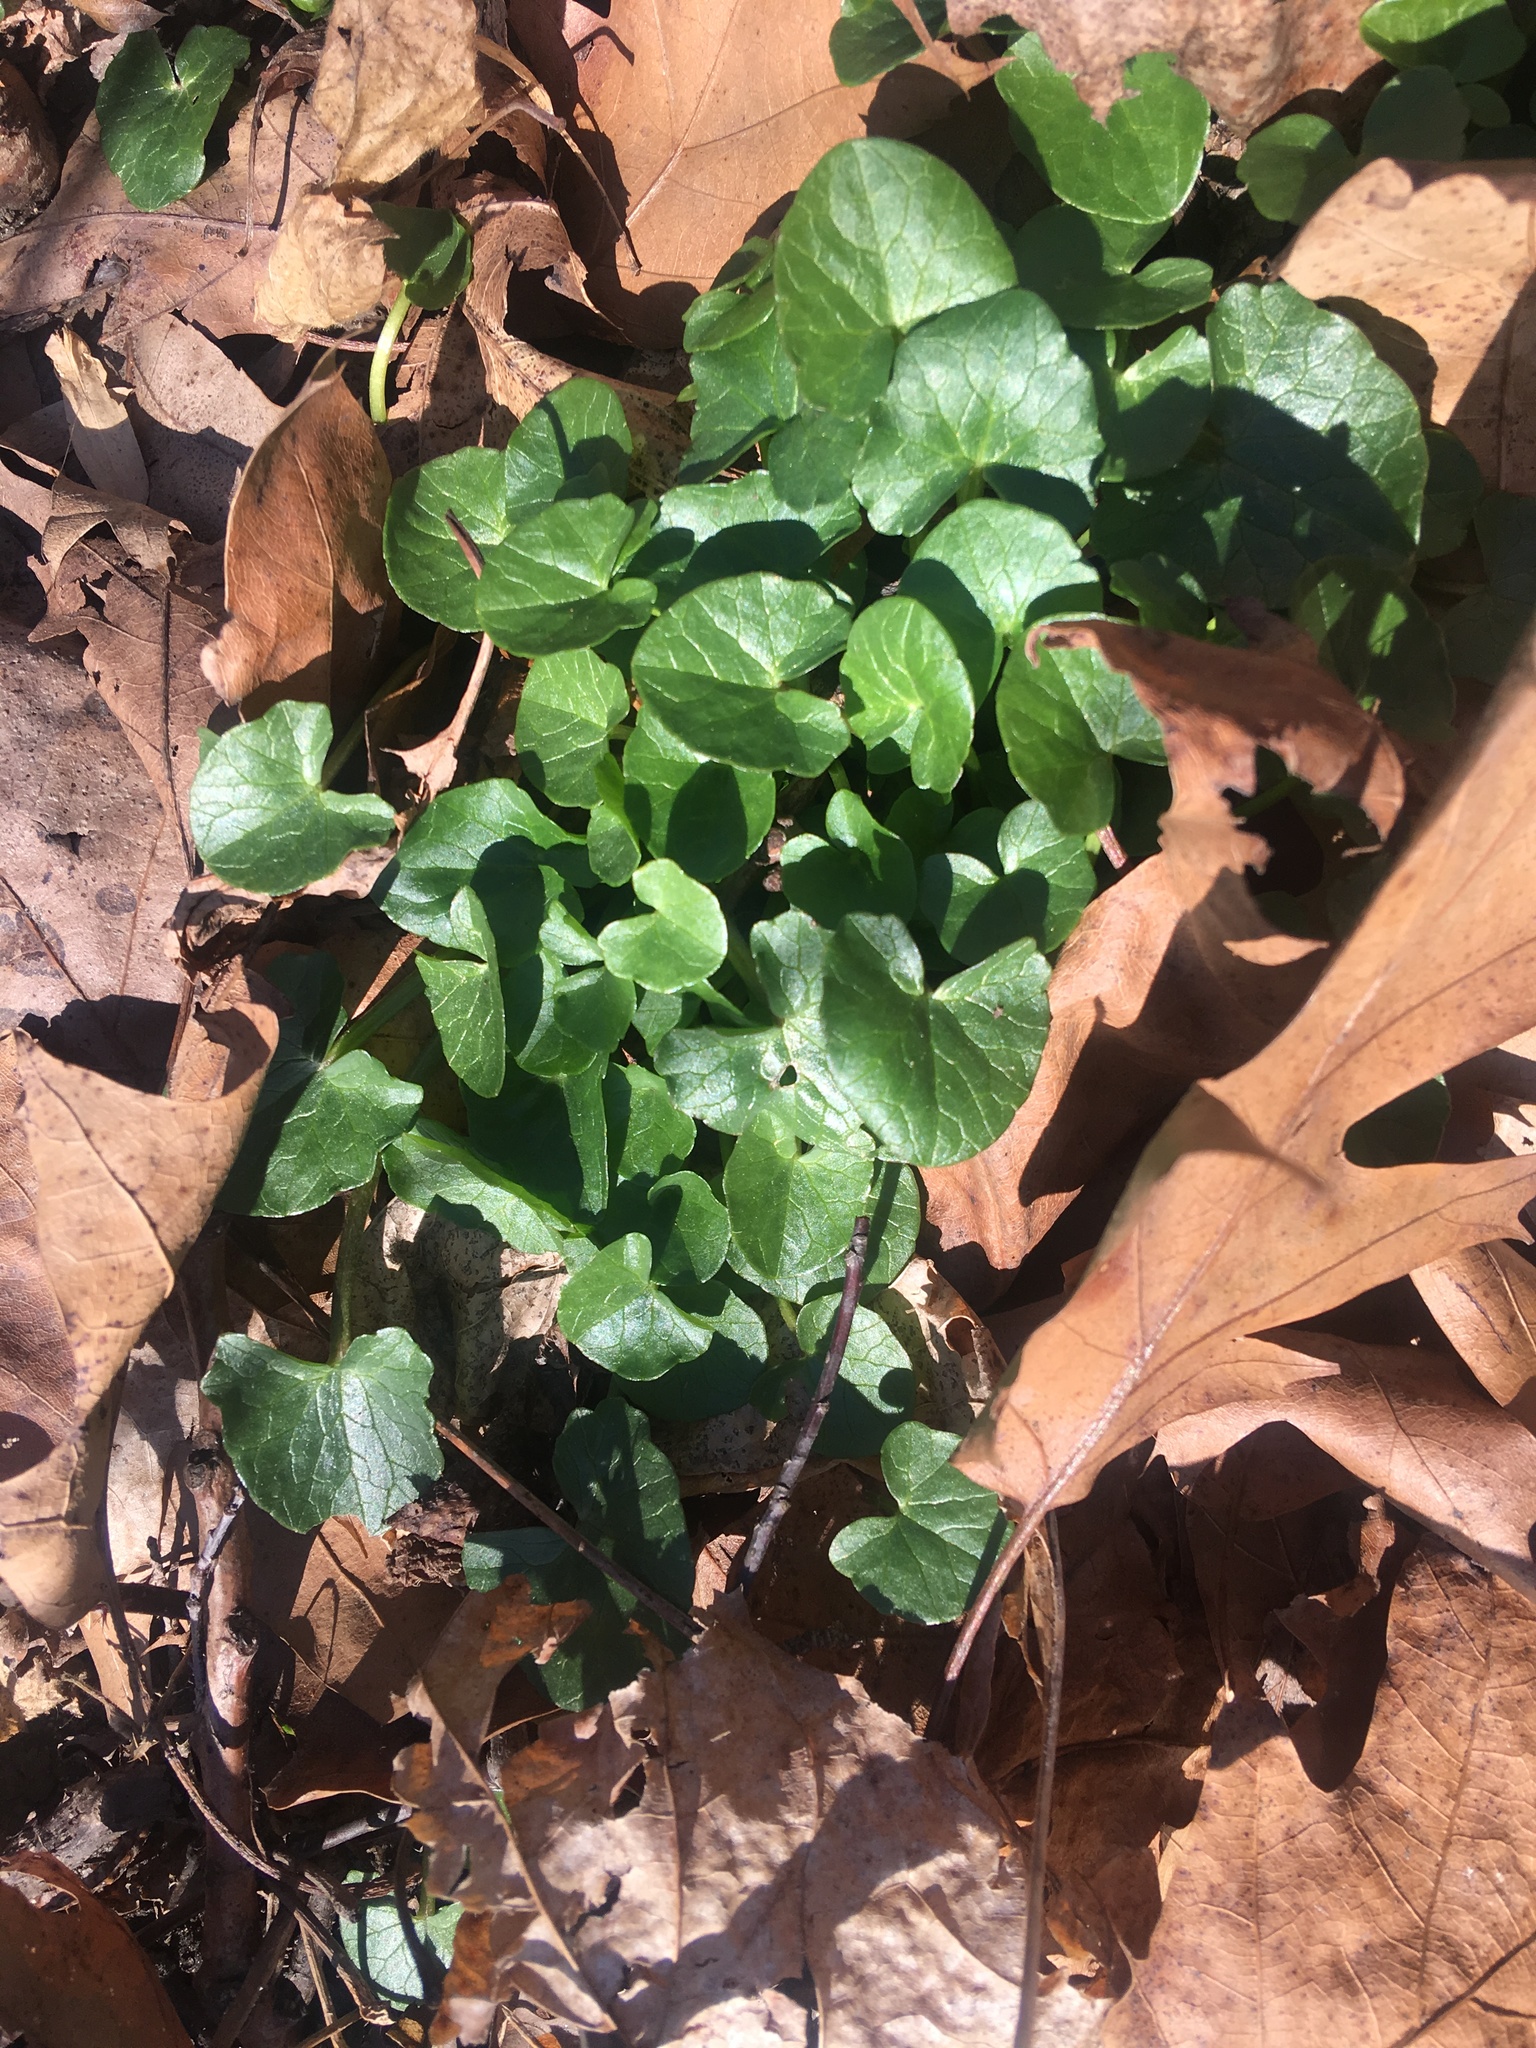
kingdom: Plantae
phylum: Tracheophyta
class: Magnoliopsida
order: Ranunculales
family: Ranunculaceae
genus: Ficaria
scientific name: Ficaria verna
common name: Lesser celandine
